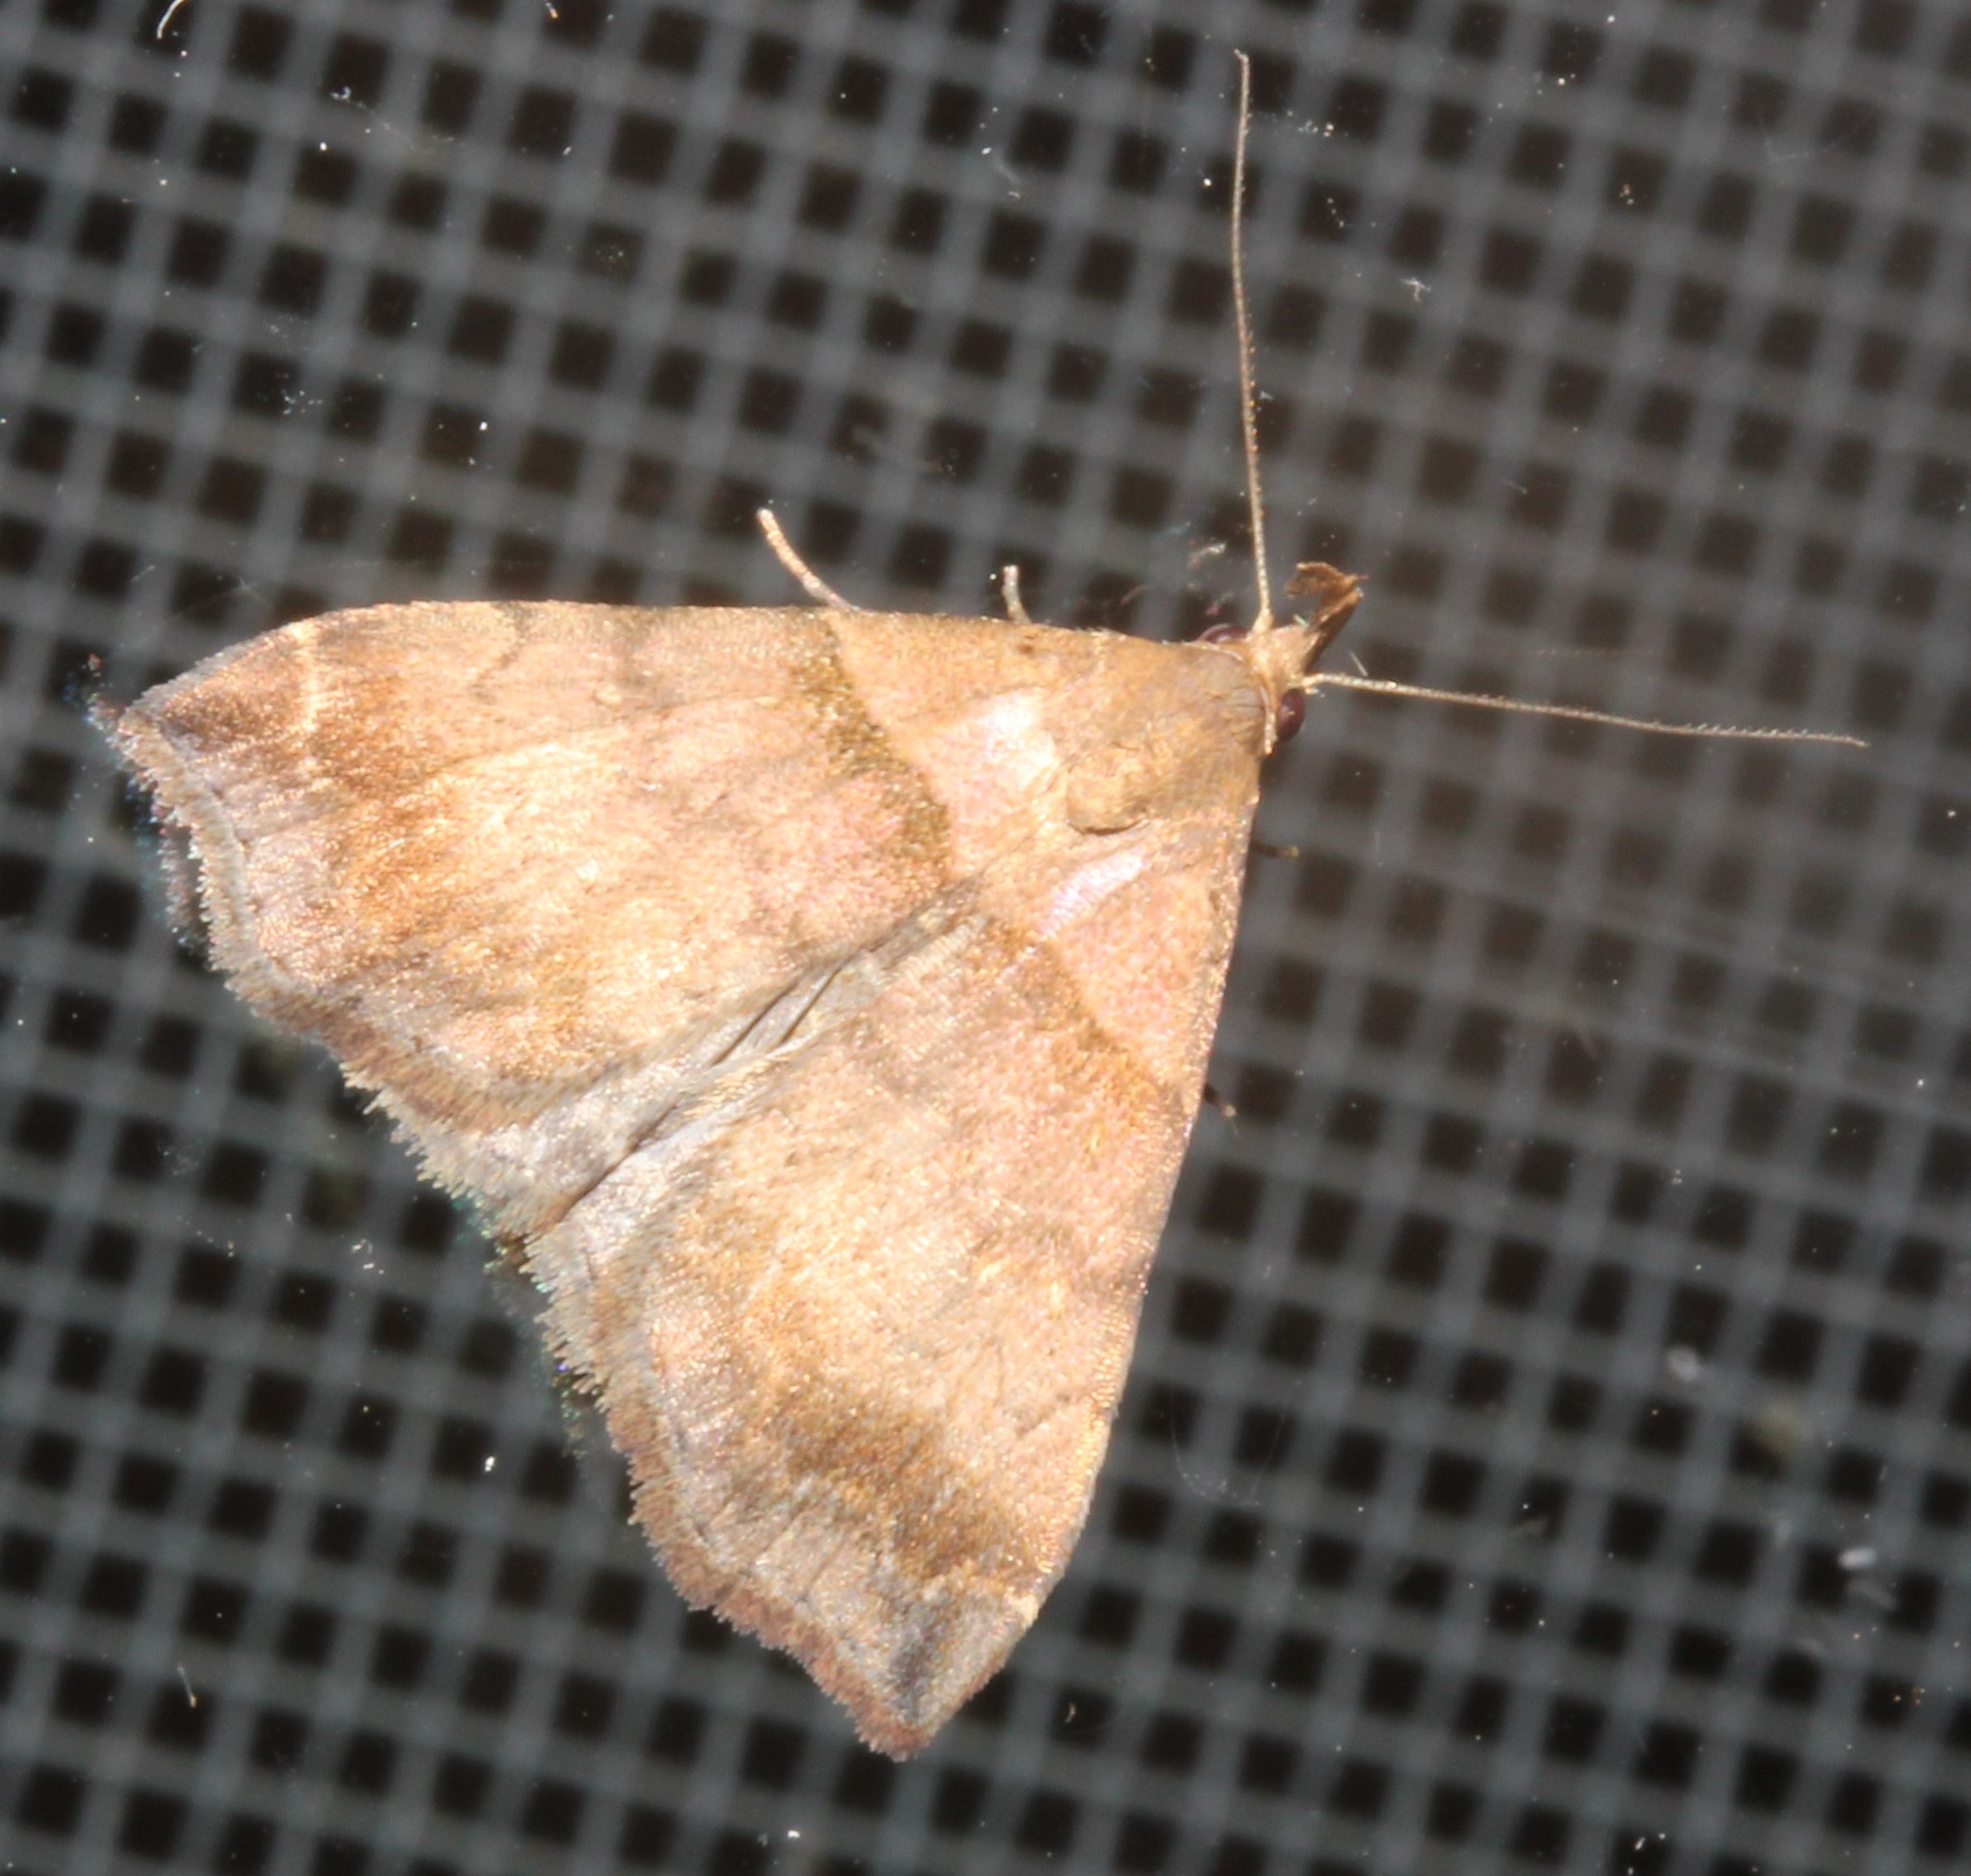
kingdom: Animalia
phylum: Arthropoda
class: Insecta
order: Lepidoptera
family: Erebidae
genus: Lascoria
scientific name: Lascoria ambigualis
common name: Ambiguous moth
